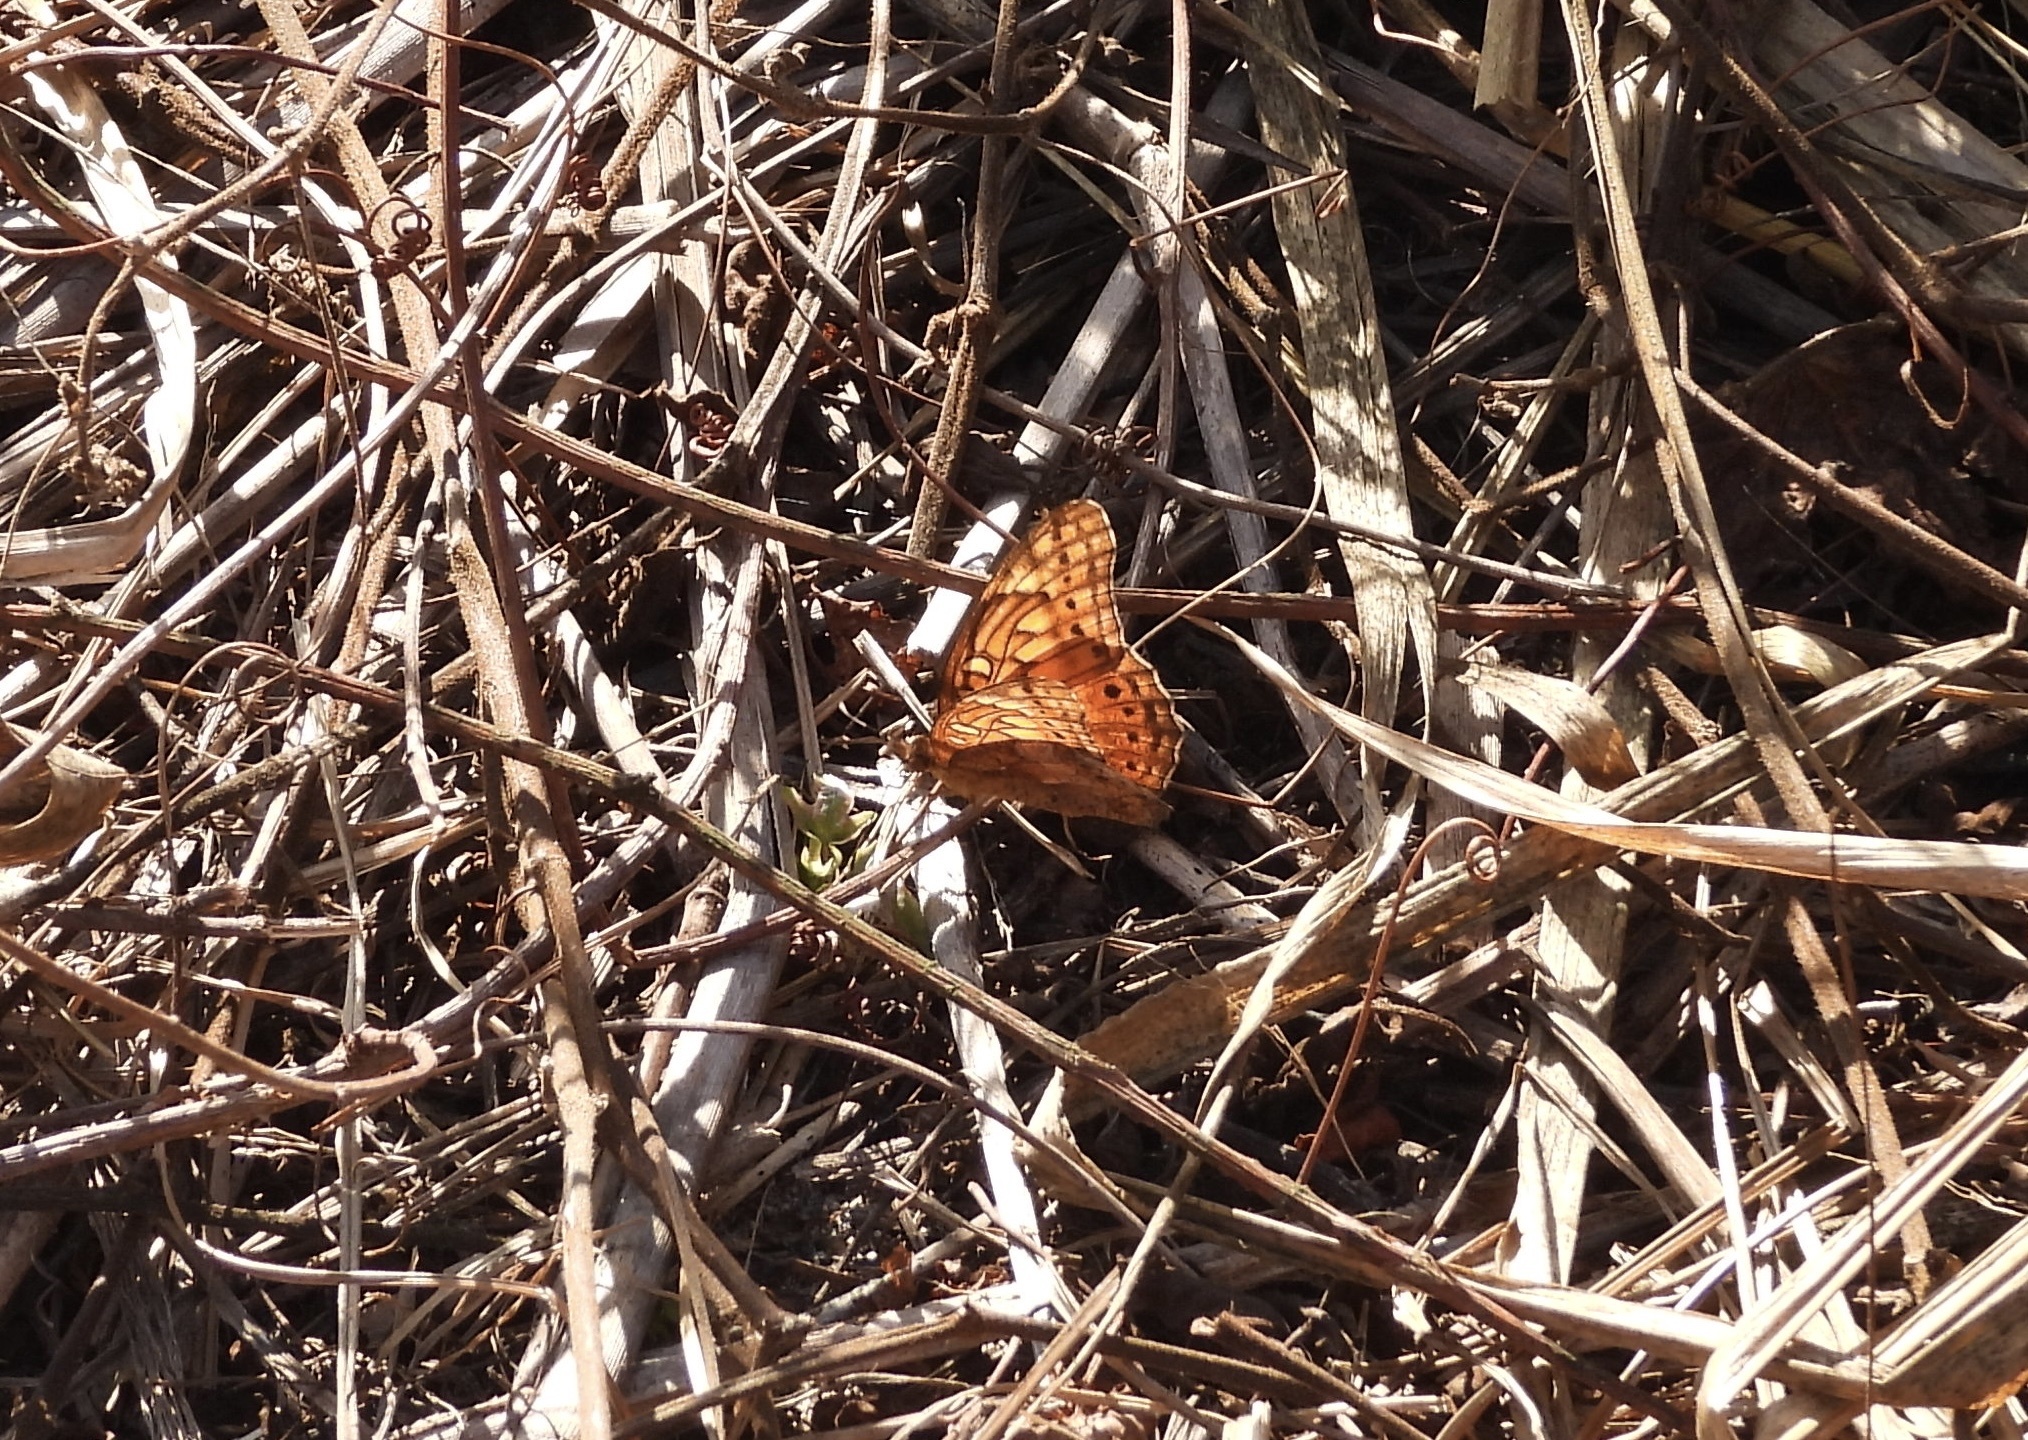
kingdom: Animalia
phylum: Arthropoda
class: Insecta
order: Lepidoptera
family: Nymphalidae
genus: Euptoieta
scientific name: Euptoieta hegesia
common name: Mexican fritillary
